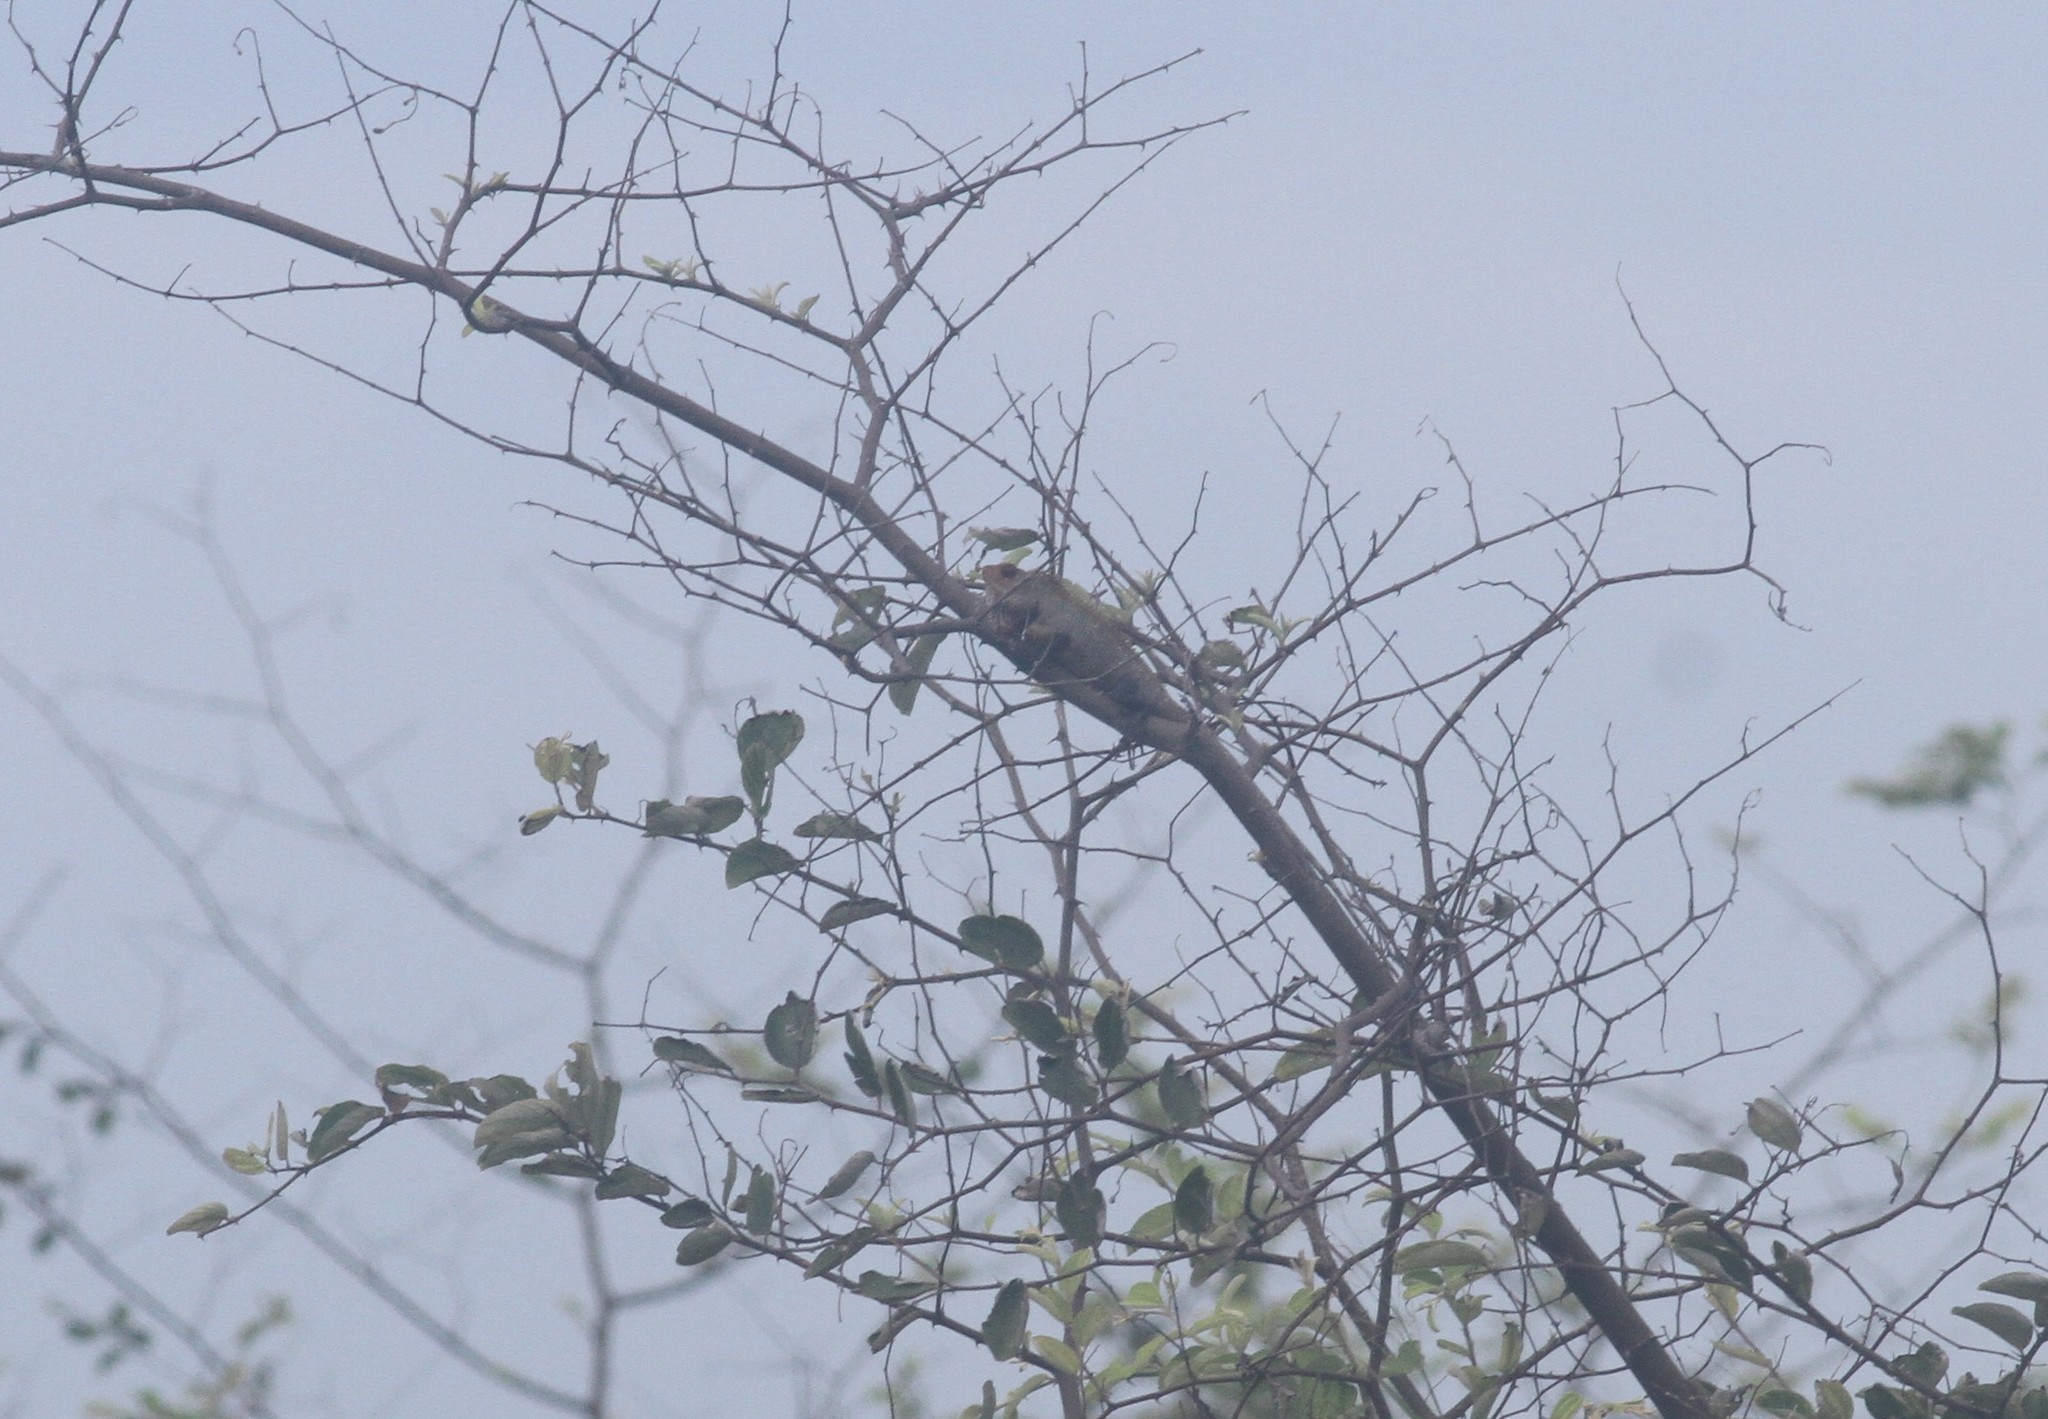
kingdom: Animalia
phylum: Chordata
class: Squamata
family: Agamidae
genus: Calotes
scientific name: Calotes versicolor
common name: Oriental garden lizard
